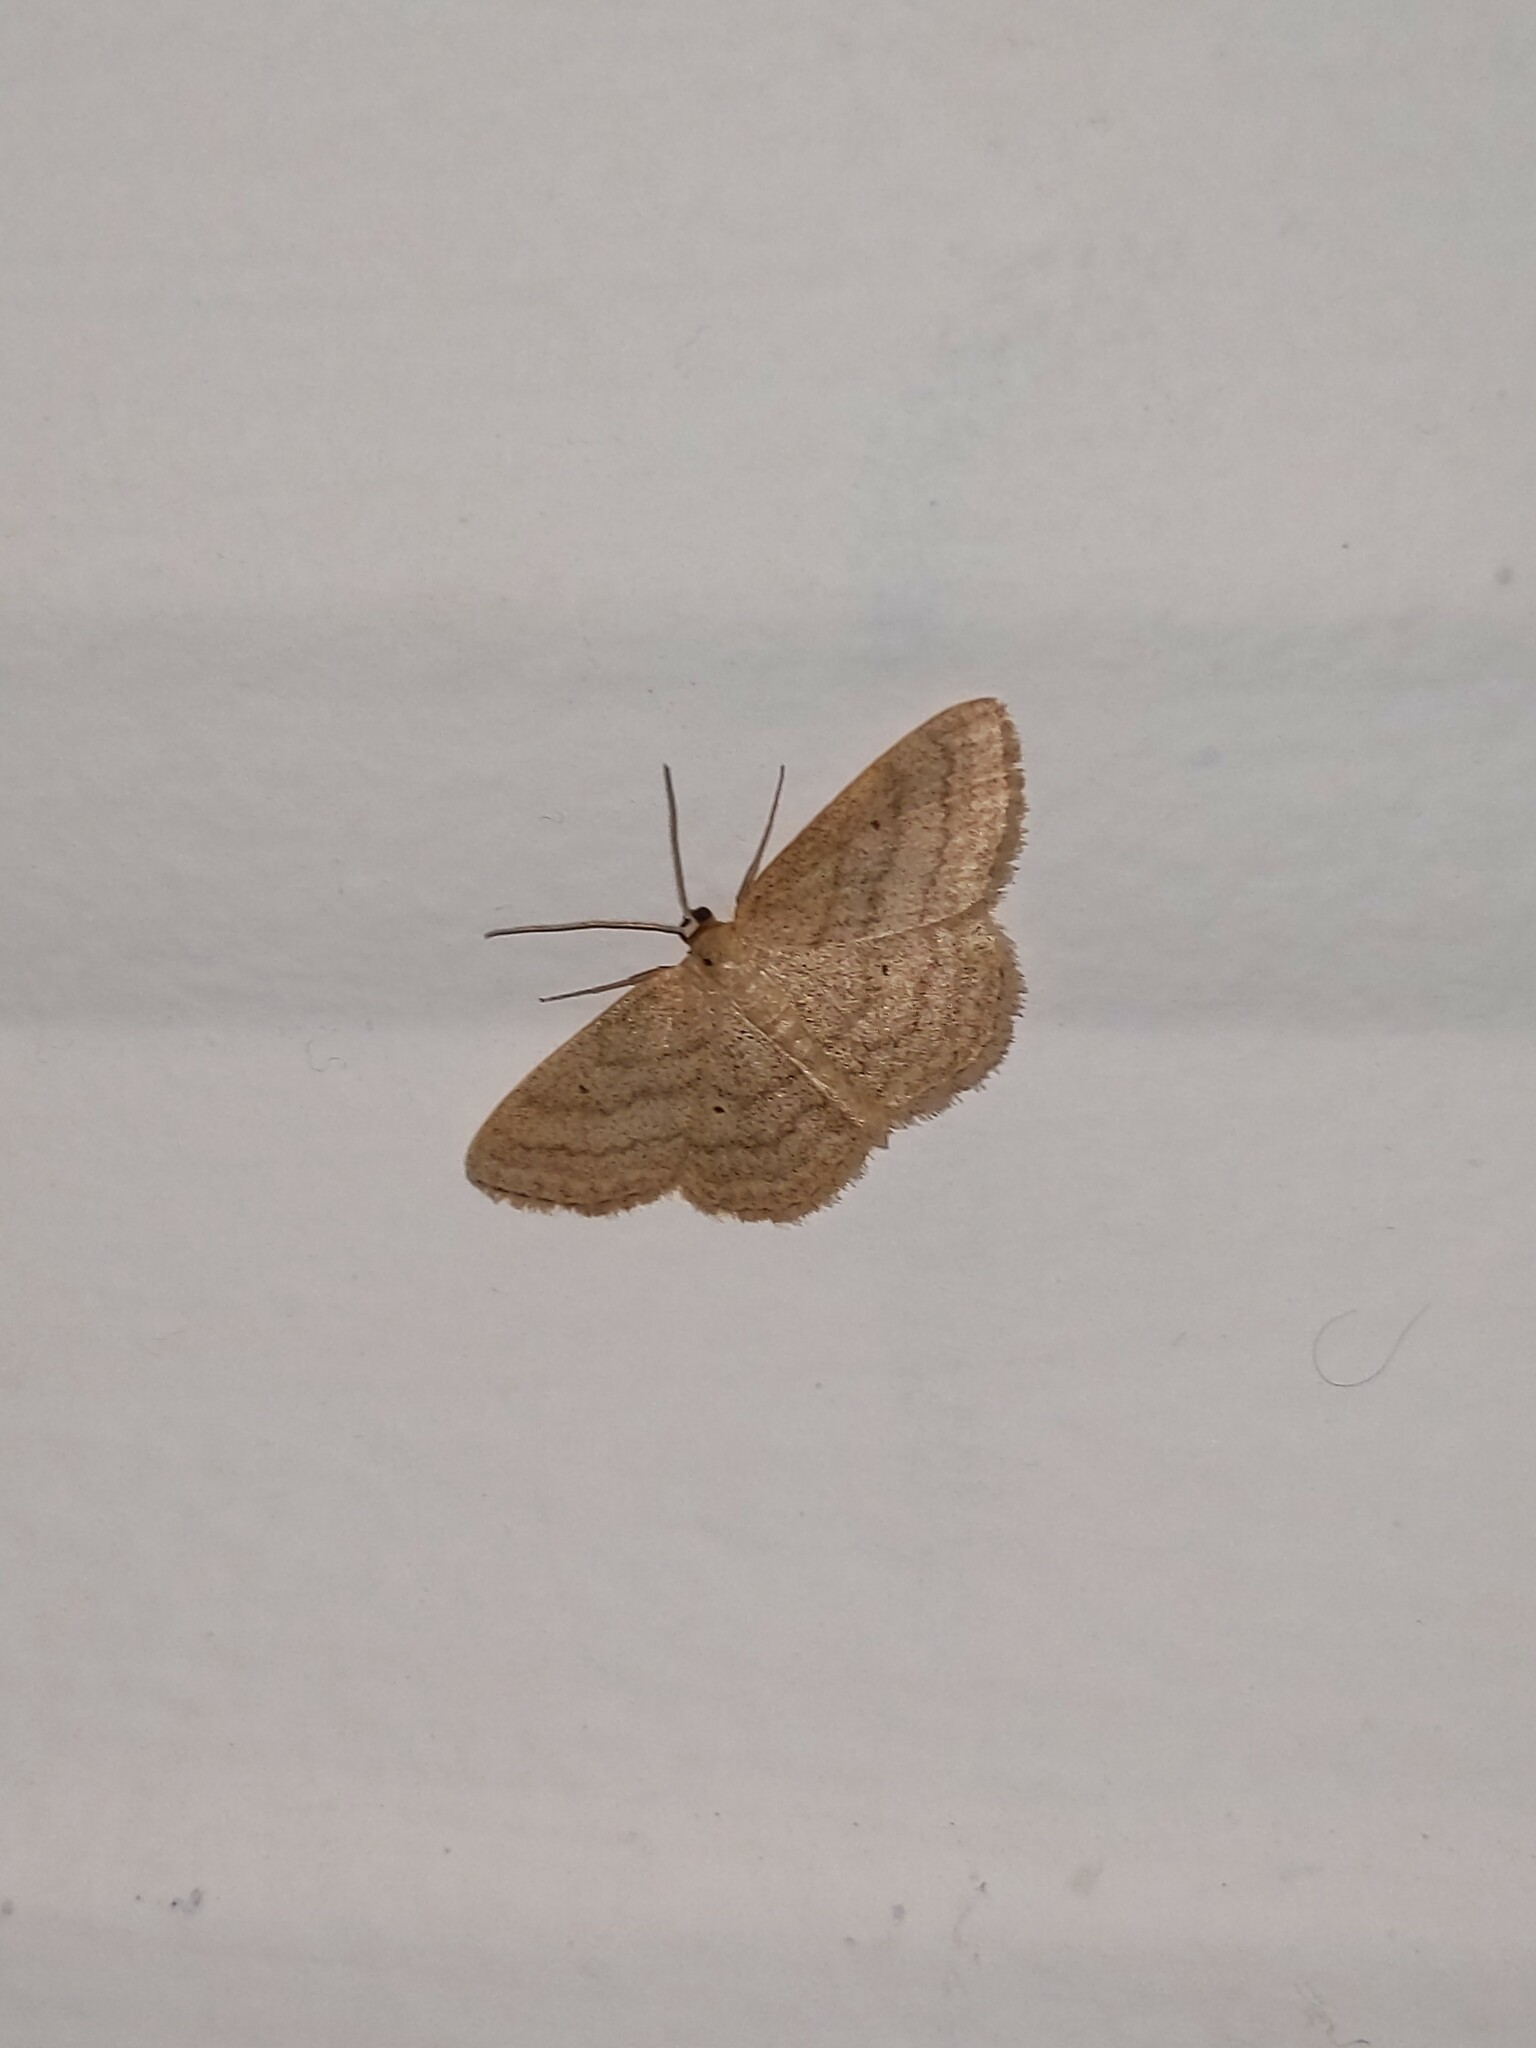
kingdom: Animalia
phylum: Arthropoda
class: Insecta
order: Lepidoptera
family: Geometridae
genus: Scopula
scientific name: Scopula inductata
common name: Soft-lined wave
